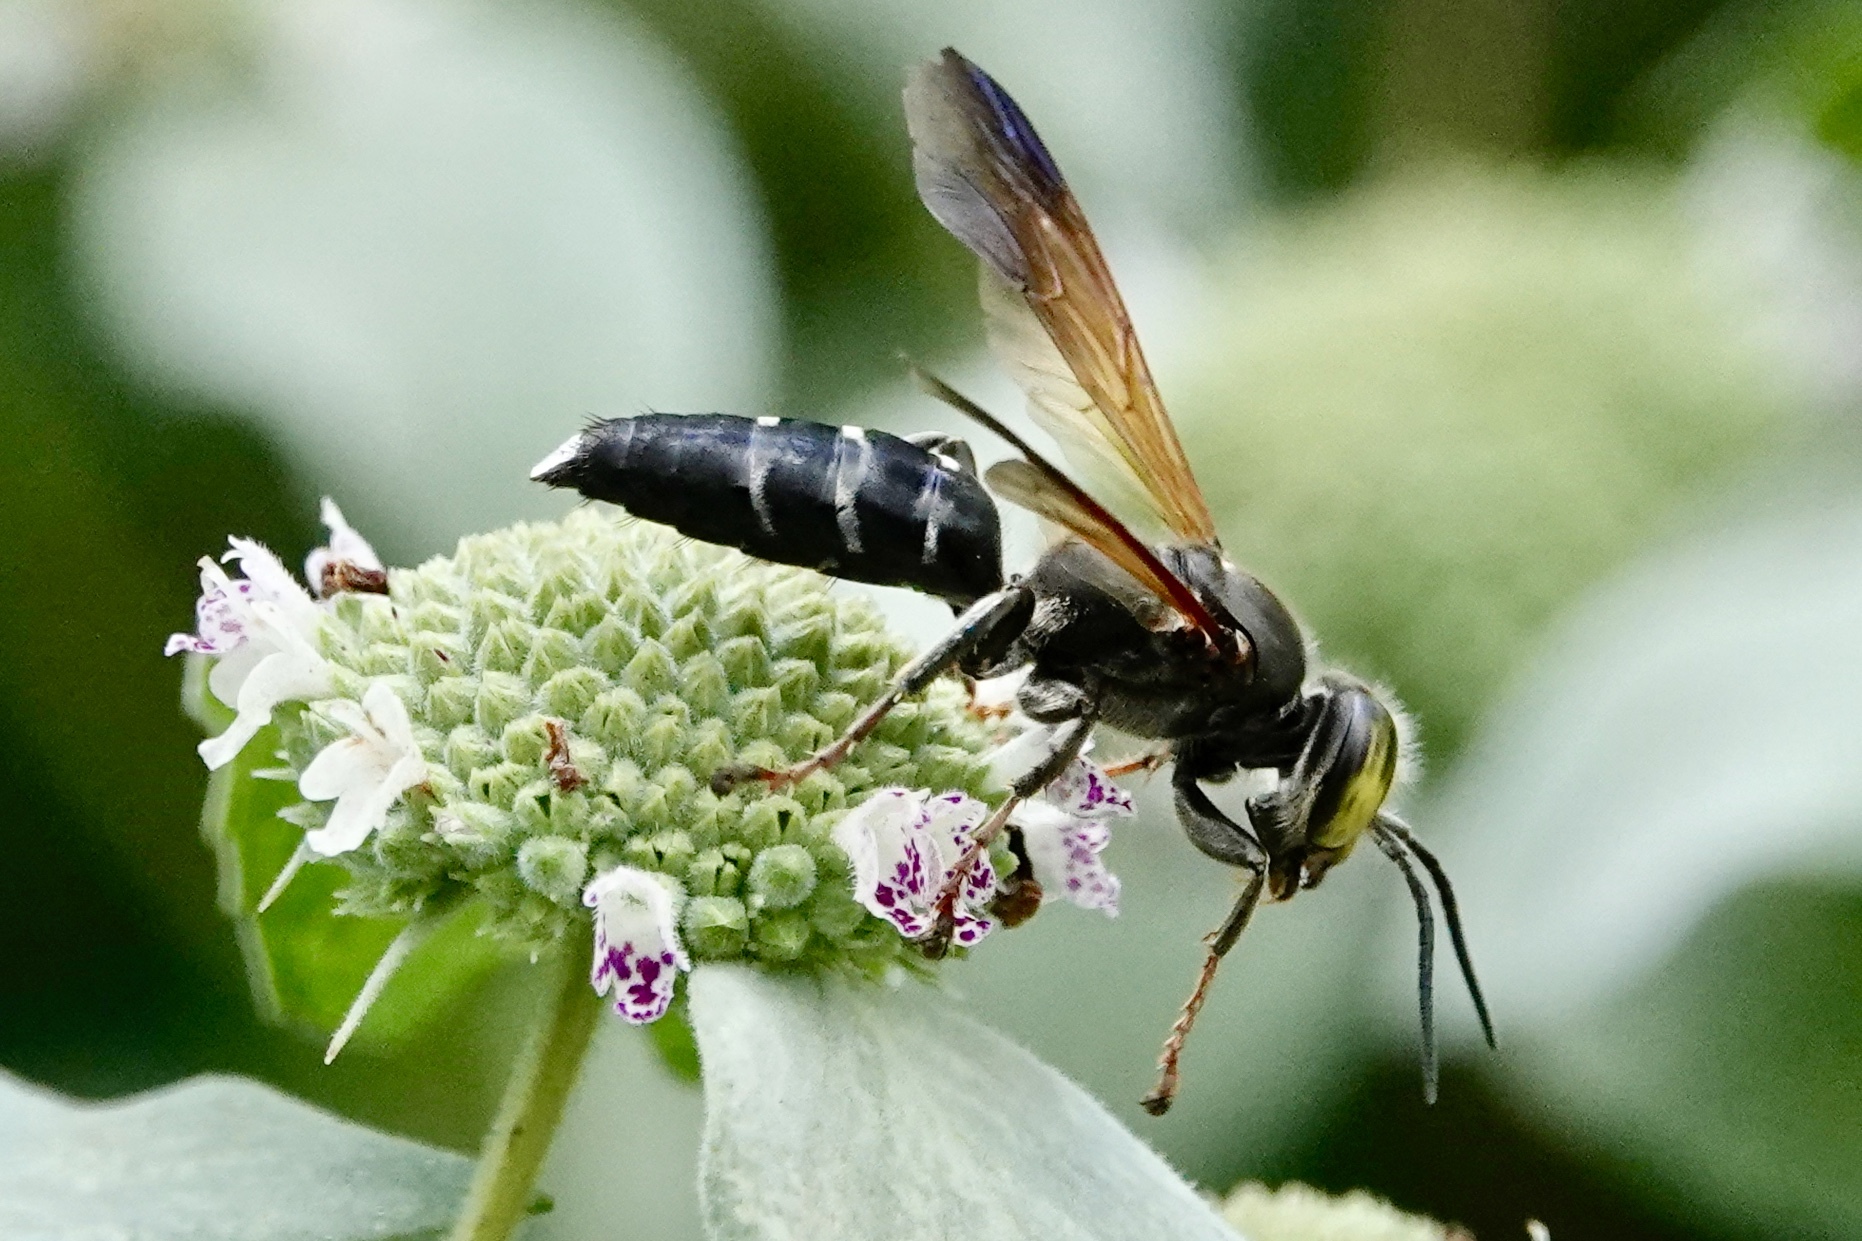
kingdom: Animalia
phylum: Arthropoda
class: Insecta
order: Hymenoptera
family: Crabronidae
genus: Tachytes
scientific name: Tachytes guatemalensis
